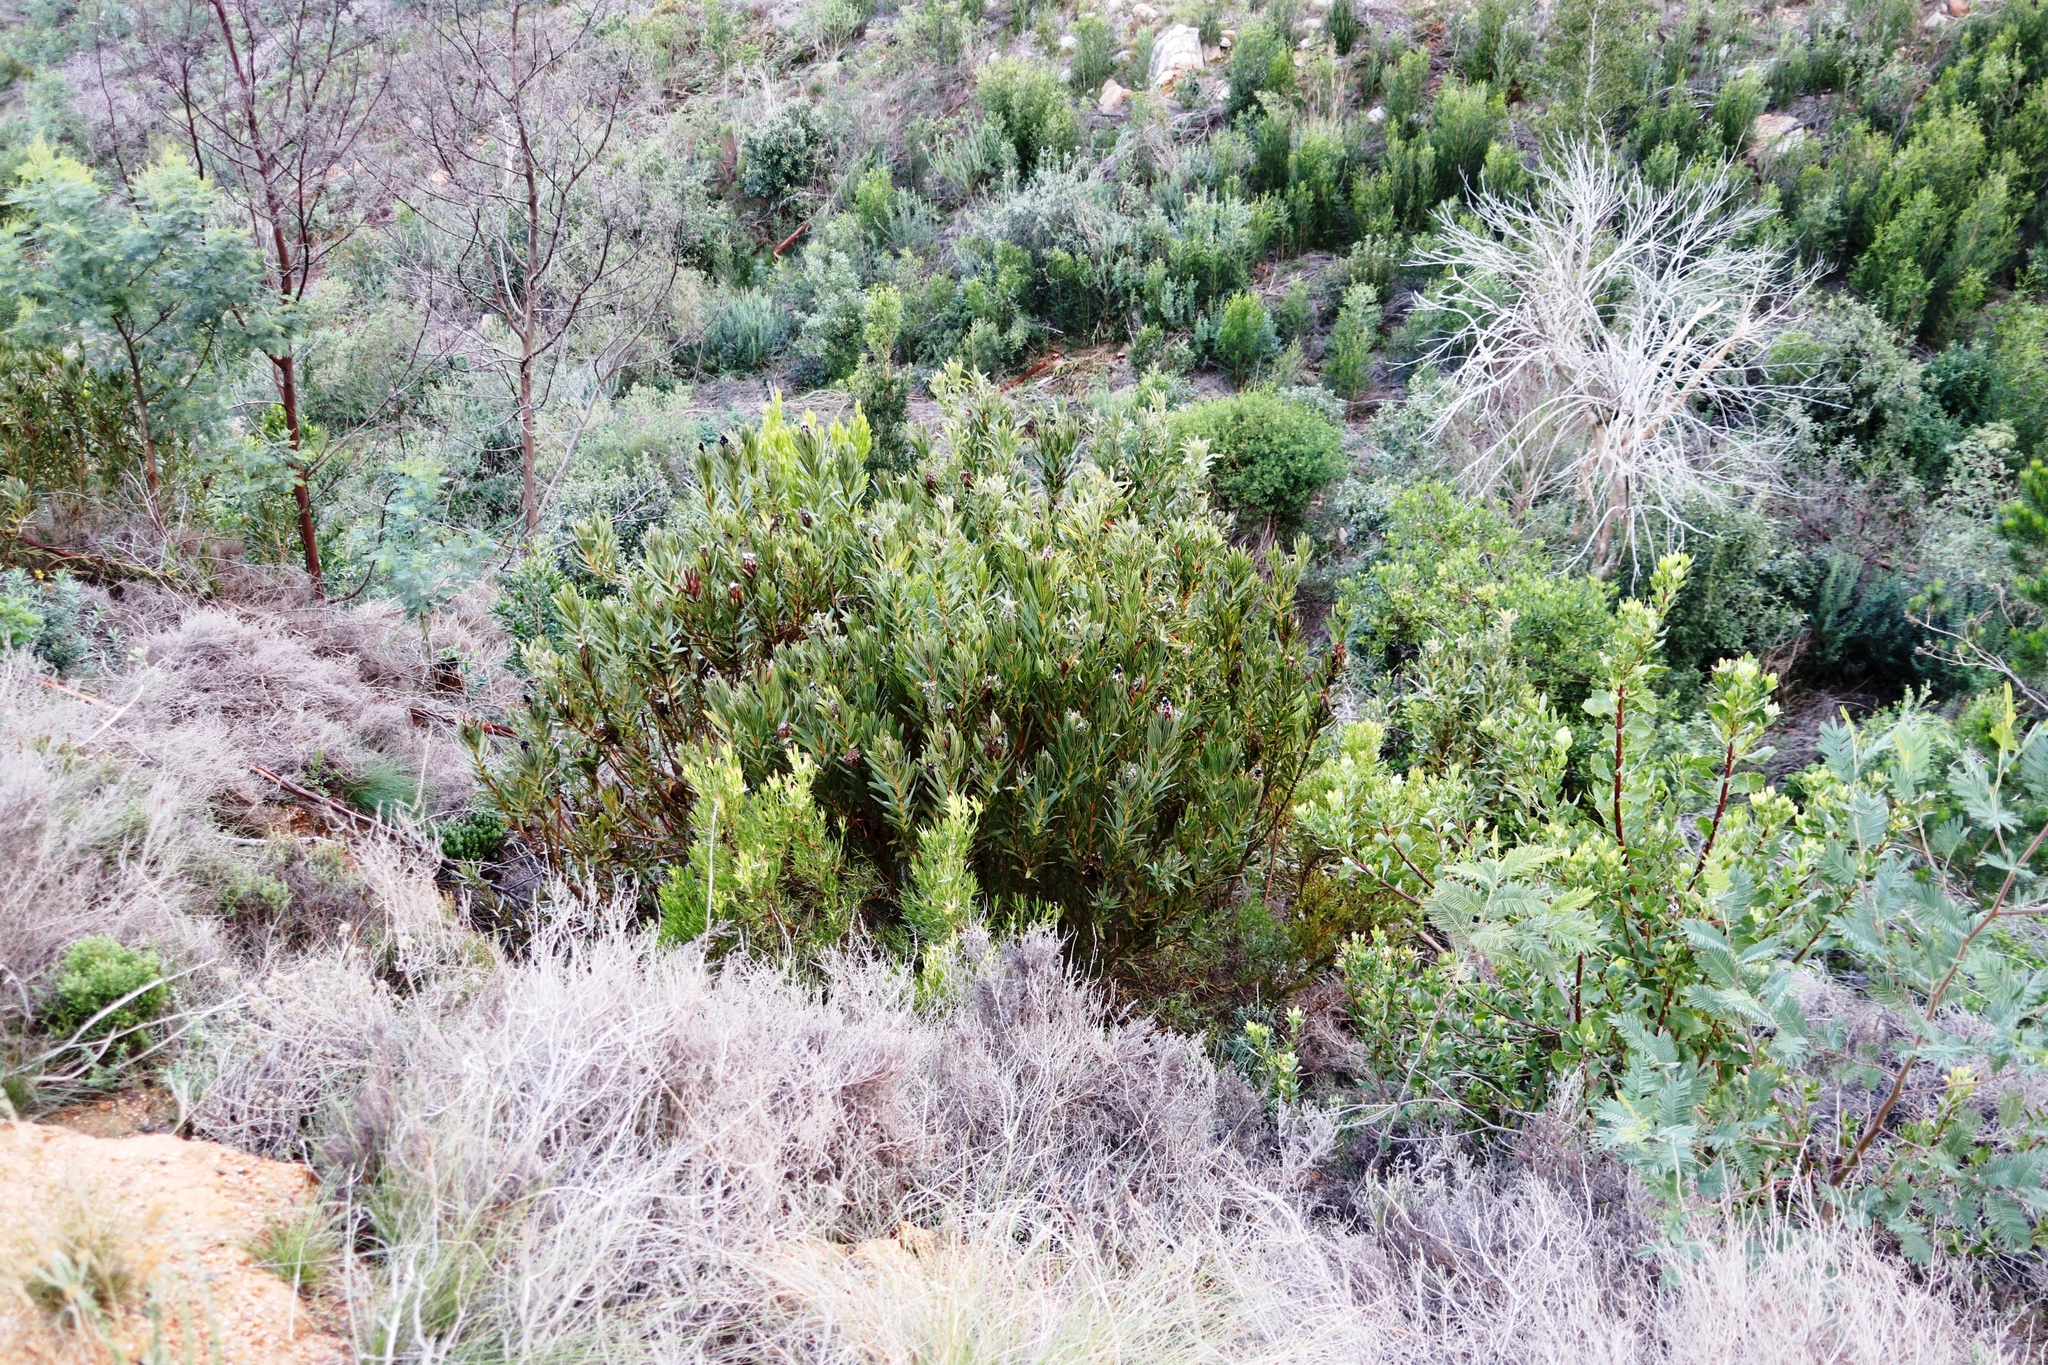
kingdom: Plantae
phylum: Tracheophyta
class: Magnoliopsida
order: Proteales
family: Proteaceae
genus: Protea
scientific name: Protea lepidocarpodendron
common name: Black-bearded protea
